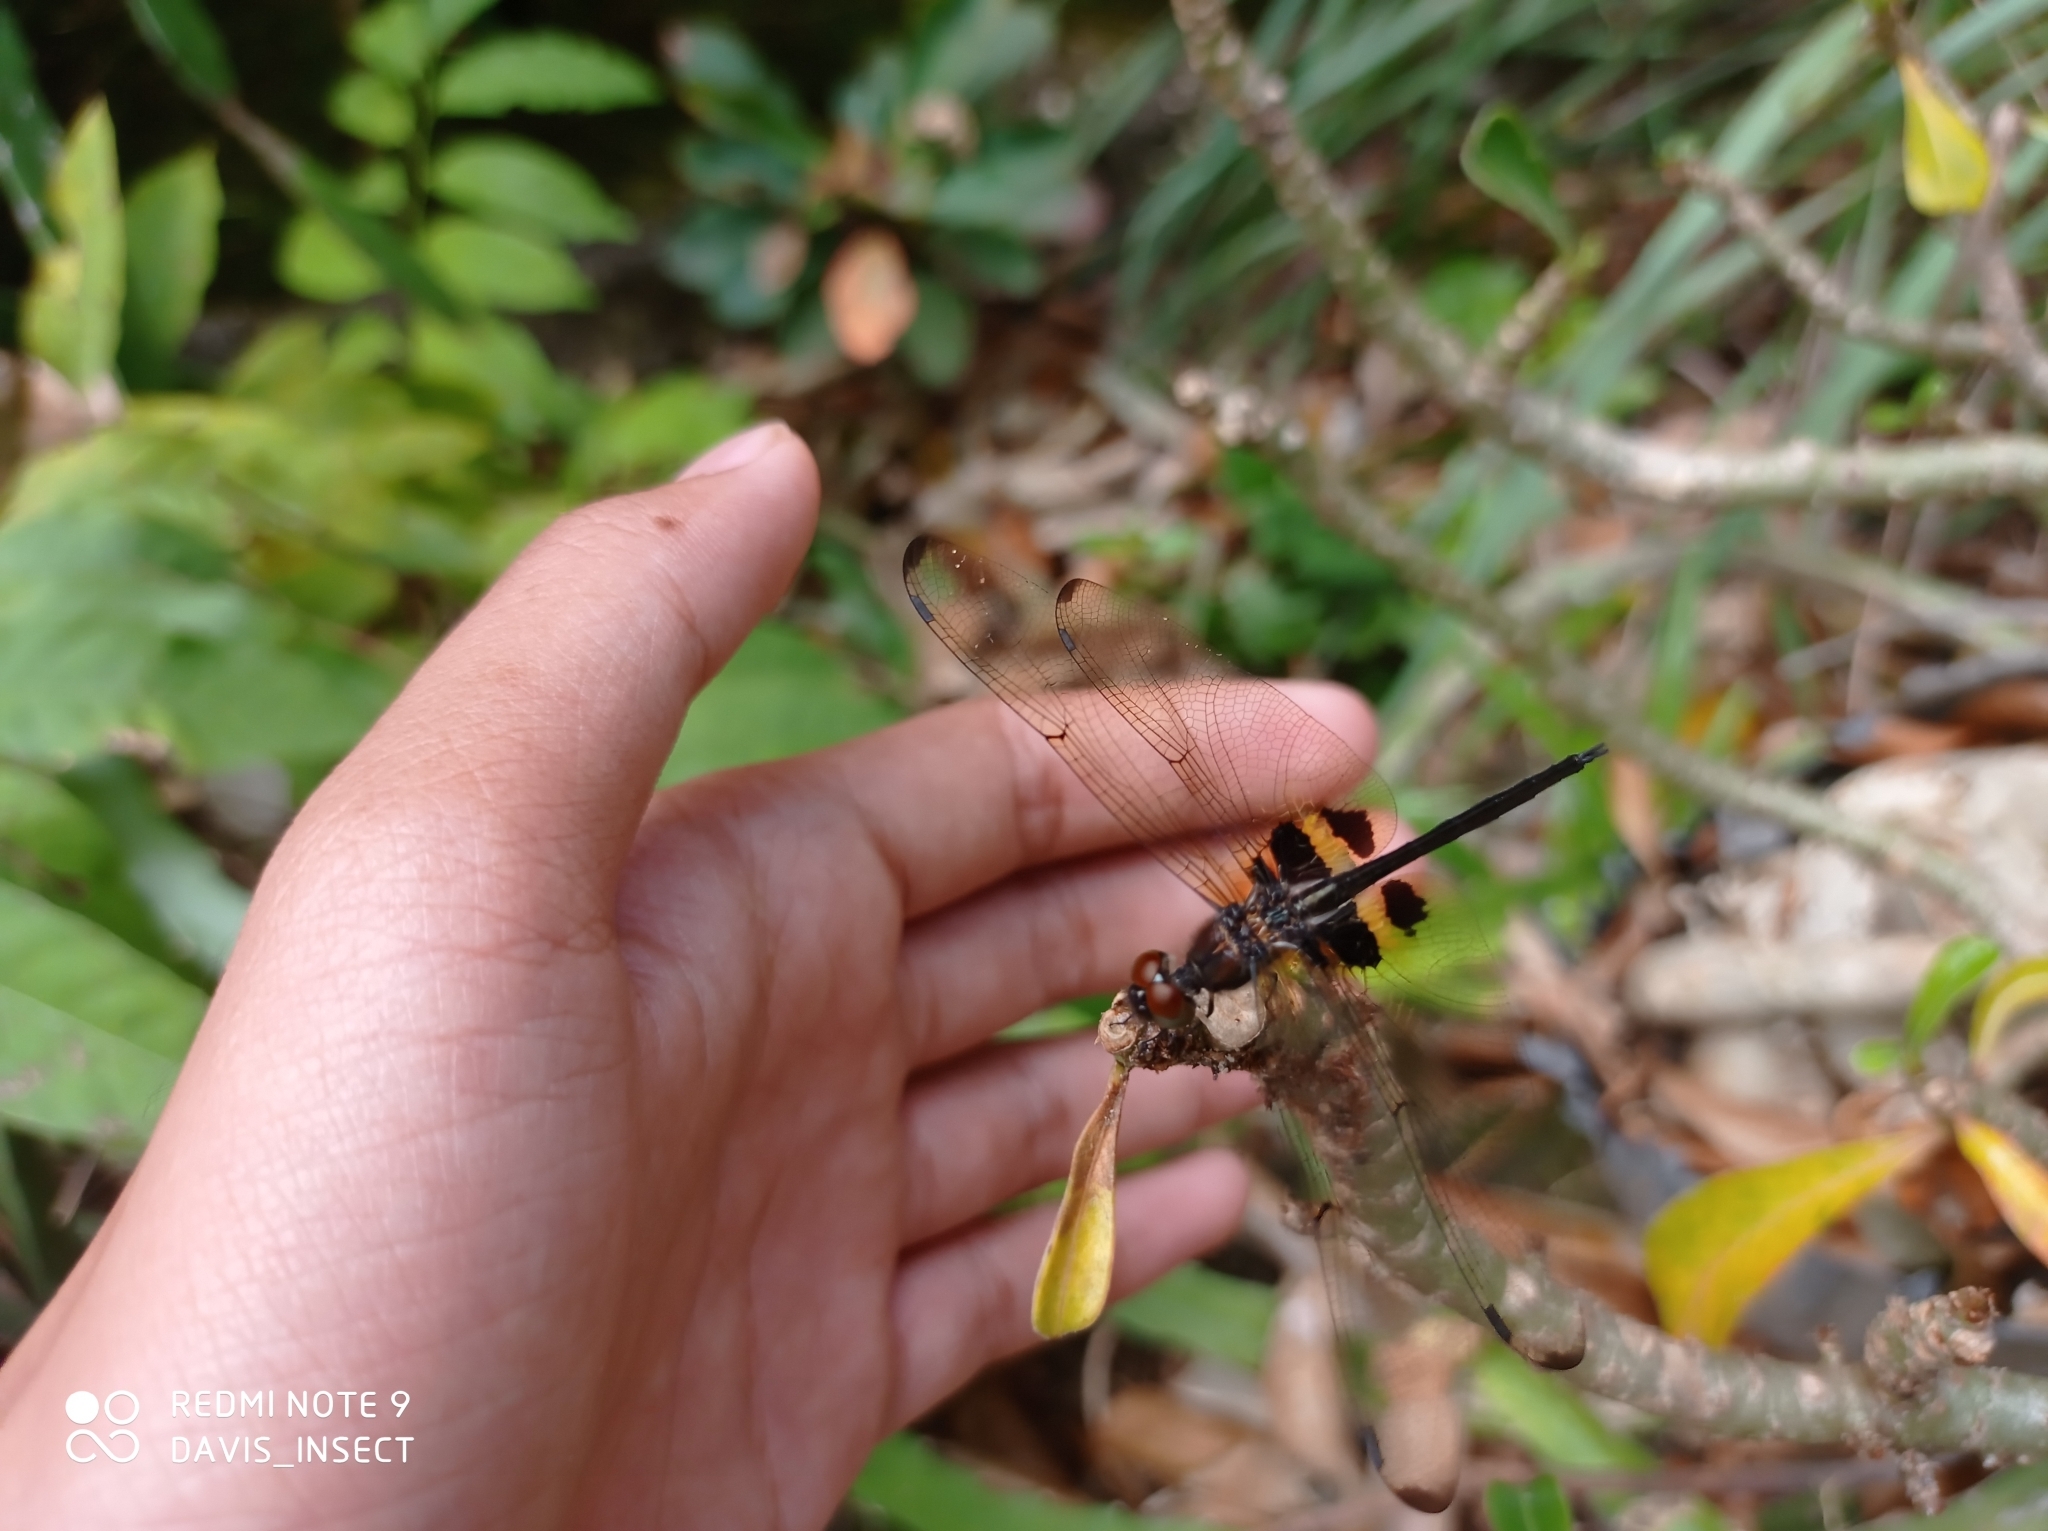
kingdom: Animalia
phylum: Arthropoda
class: Insecta
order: Odonata
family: Libellulidae
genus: Rhyothemis
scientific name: Rhyothemis phyllis
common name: Yellow-barred flutterer
